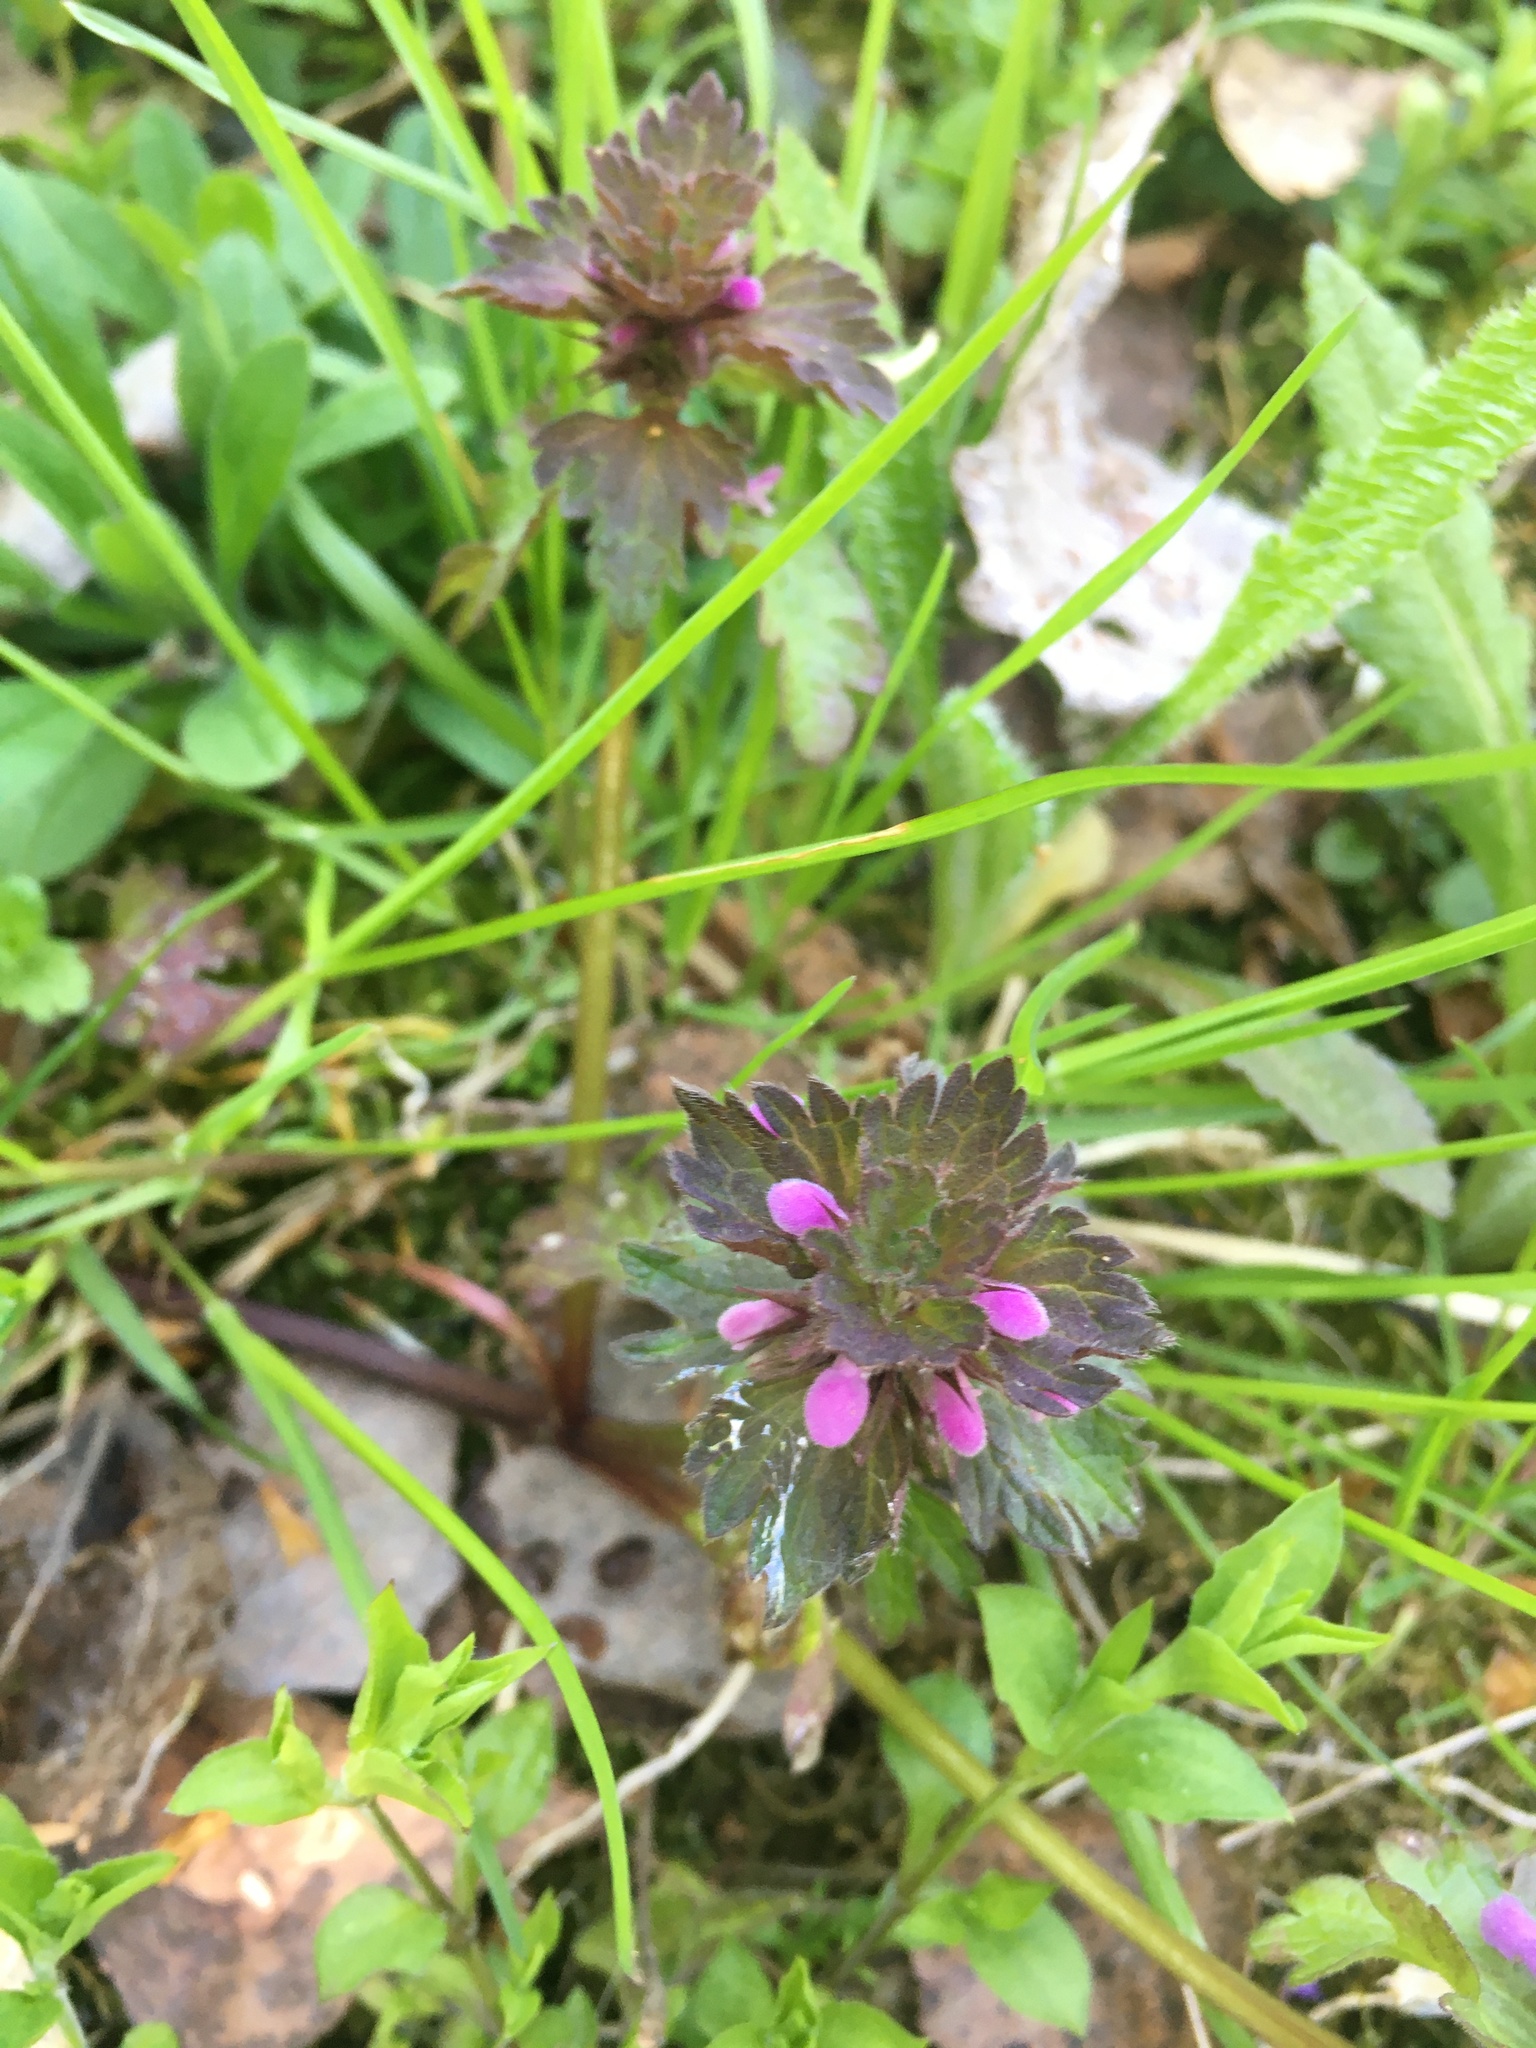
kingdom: Plantae
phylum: Tracheophyta
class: Magnoliopsida
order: Lamiales
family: Lamiaceae
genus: Lamium
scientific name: Lamium purpureum
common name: Red dead-nettle
